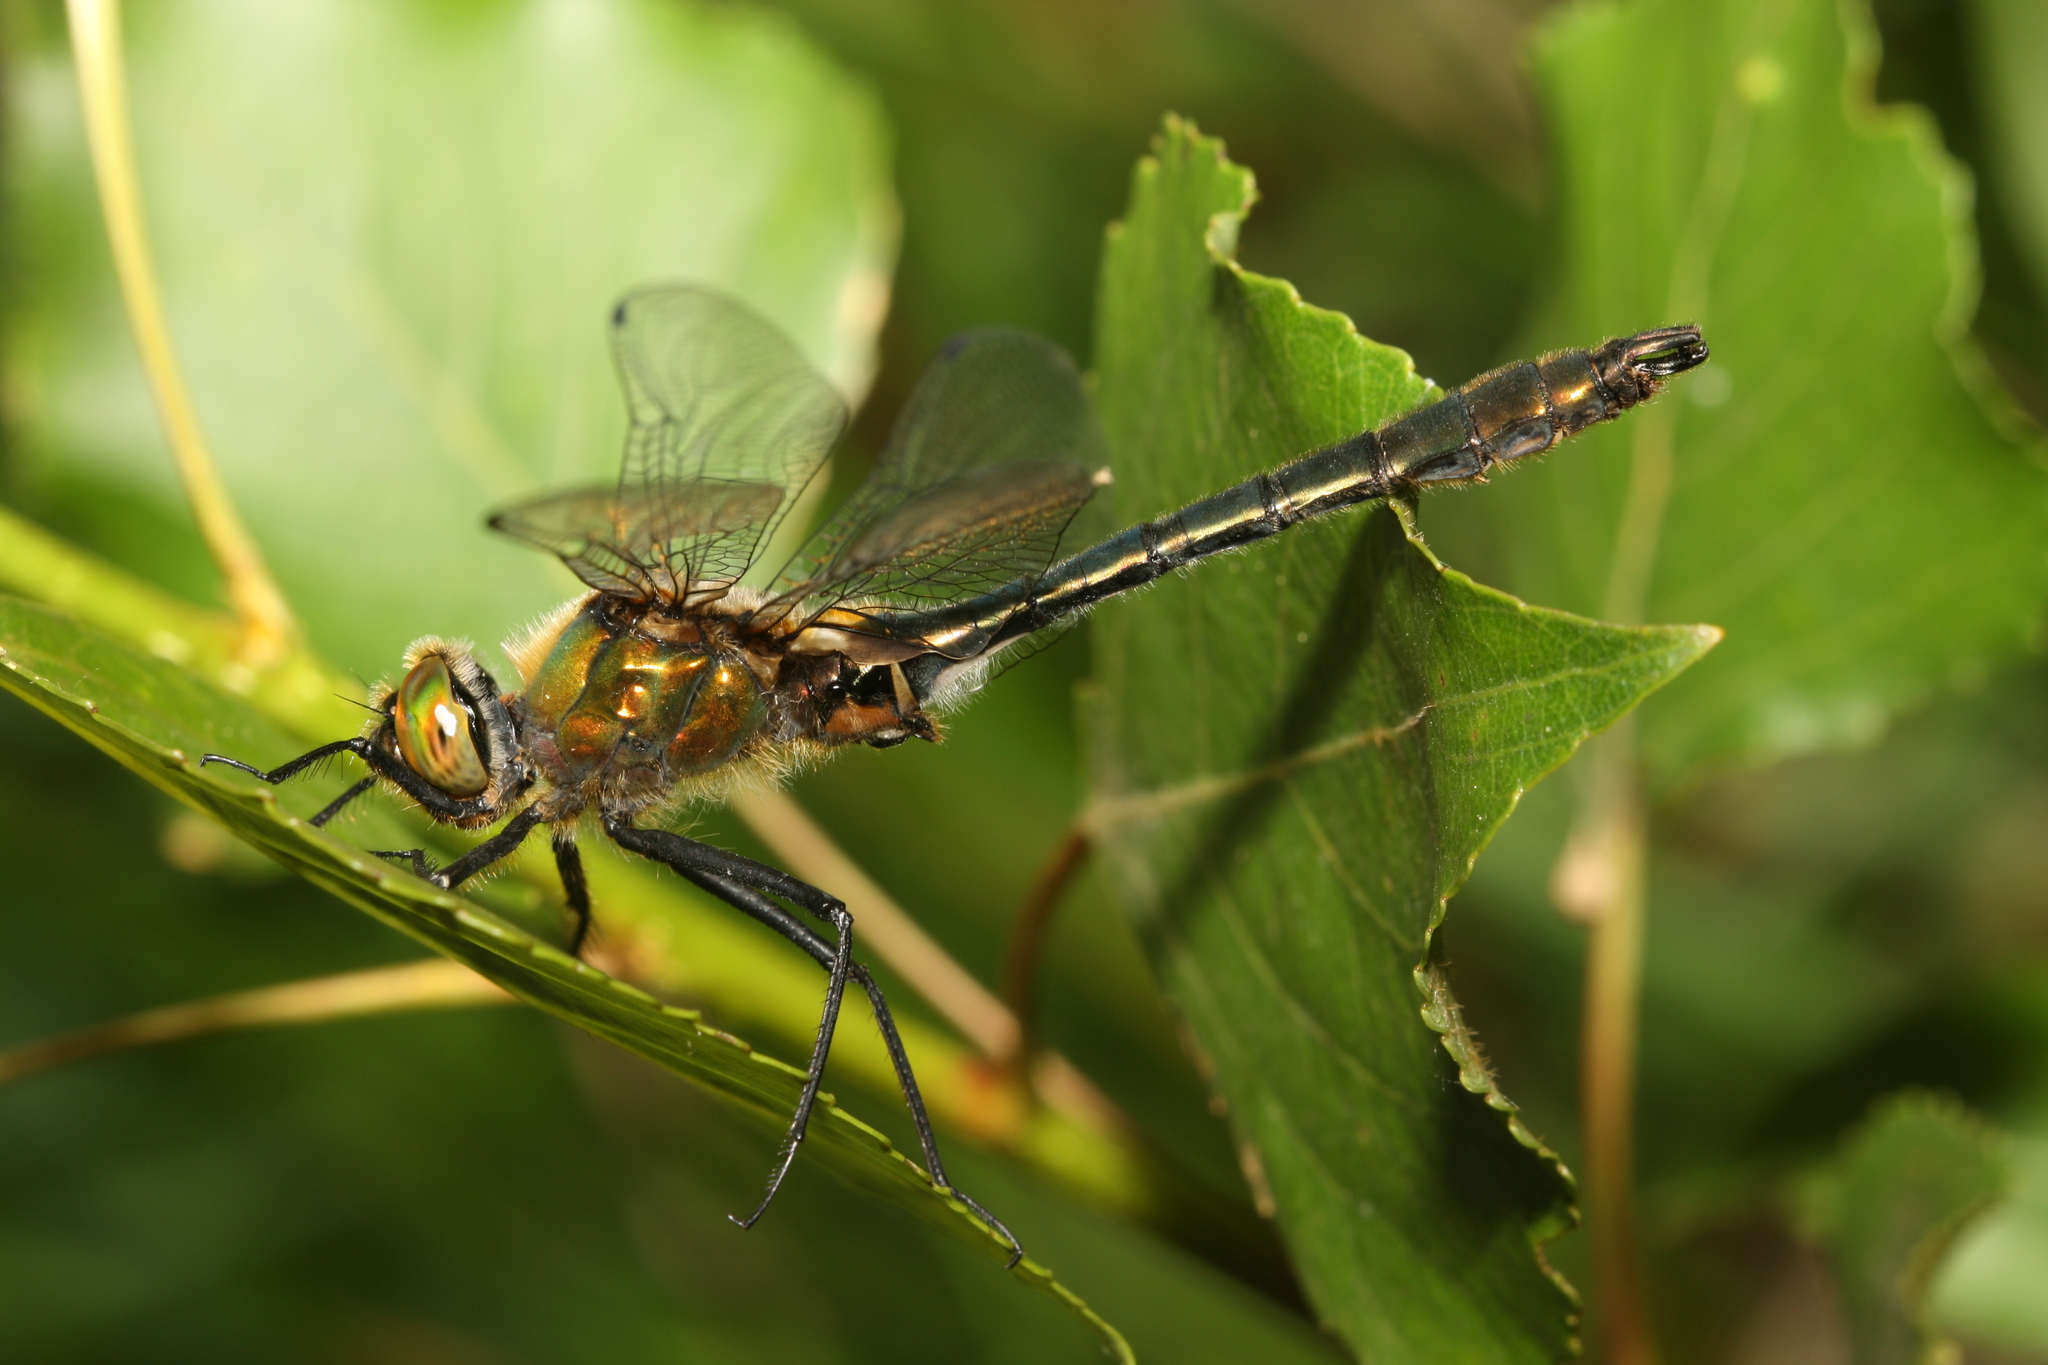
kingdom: Animalia
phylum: Arthropoda
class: Insecta
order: Odonata
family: Corduliidae
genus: Cordulia
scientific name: Cordulia aenea
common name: Downy emerald
